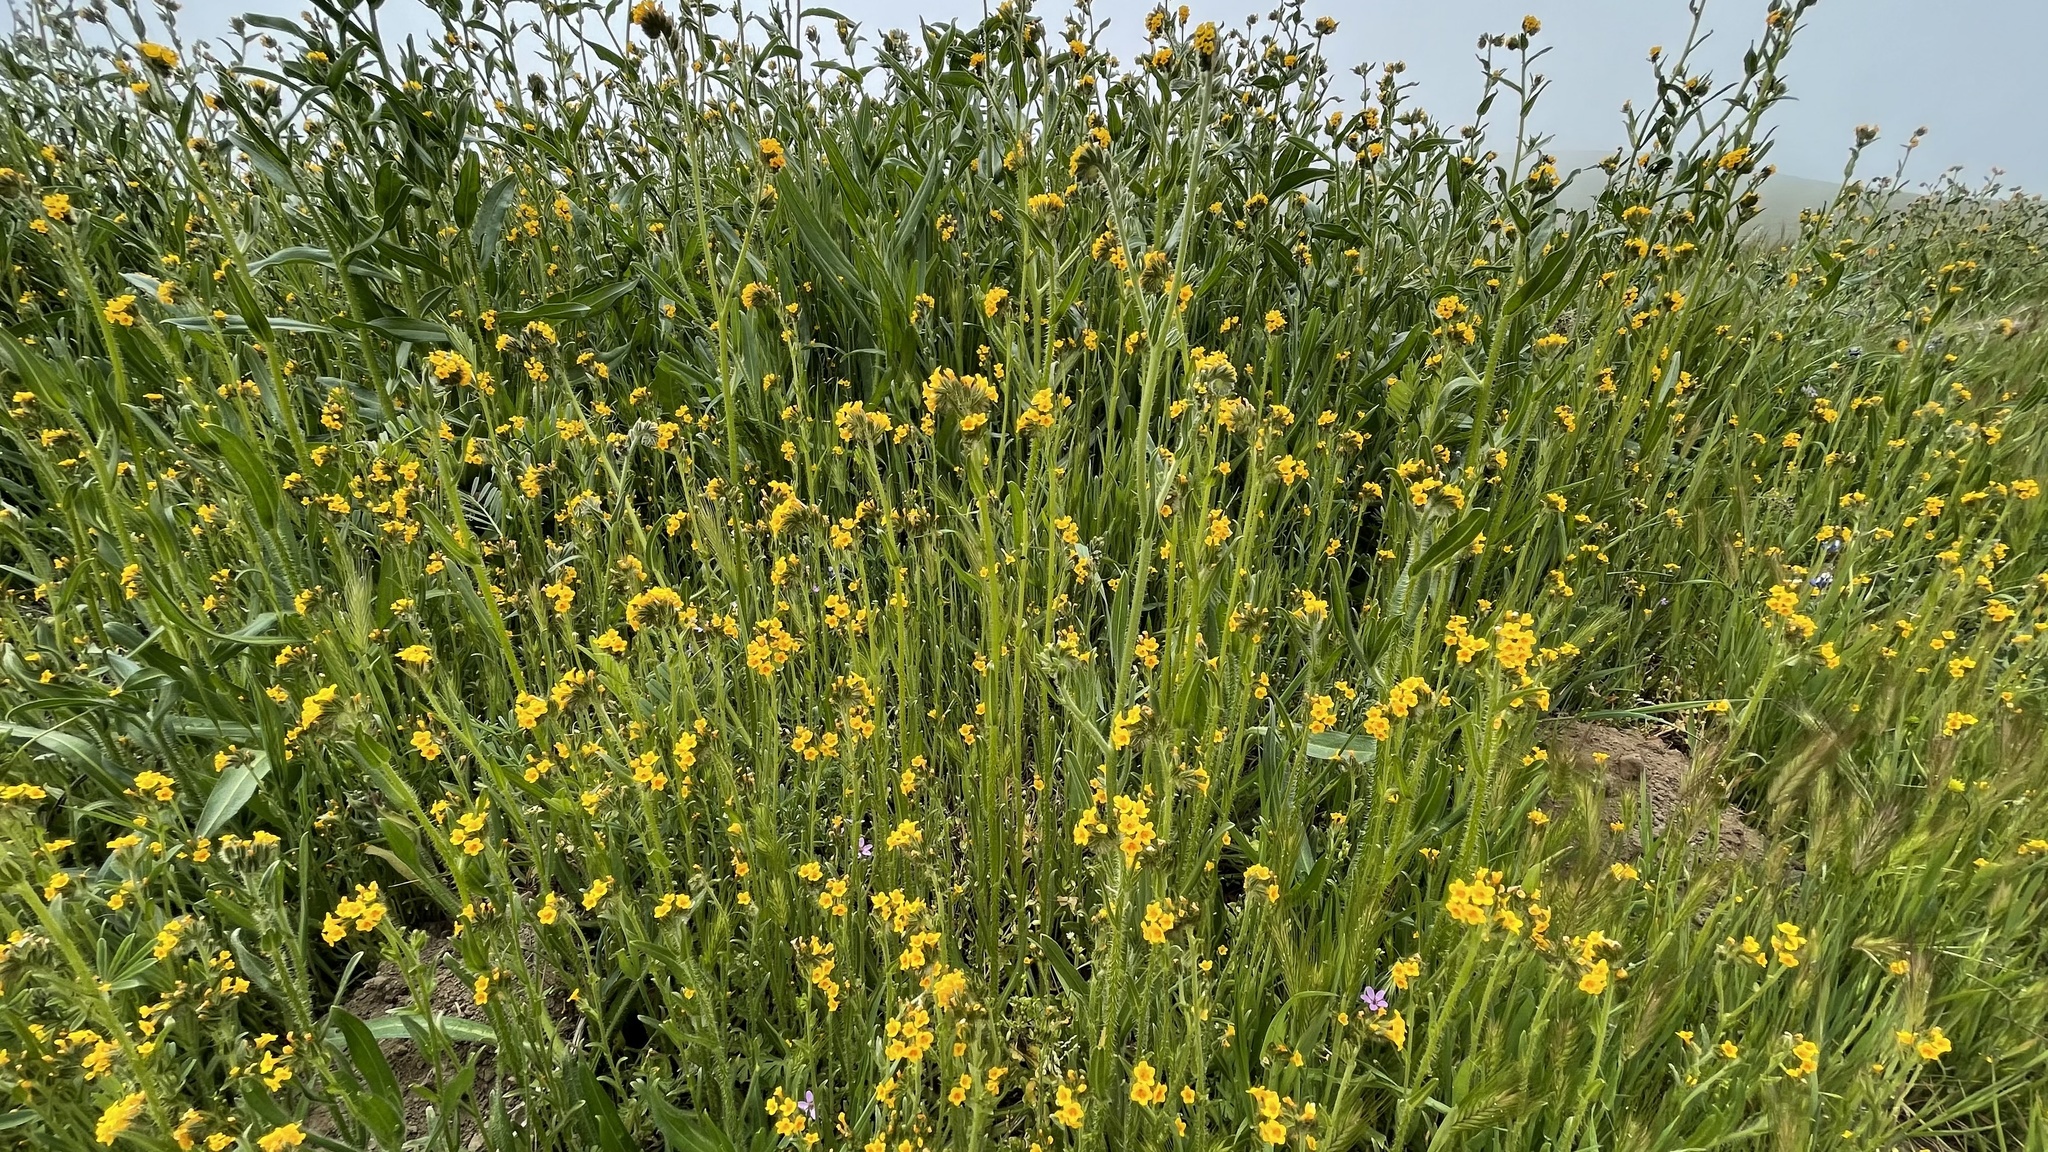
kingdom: Plantae
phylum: Tracheophyta
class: Magnoliopsida
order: Boraginales
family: Boraginaceae
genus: Amsinckia
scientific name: Amsinckia menziesii
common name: Menzies' fiddleneck
